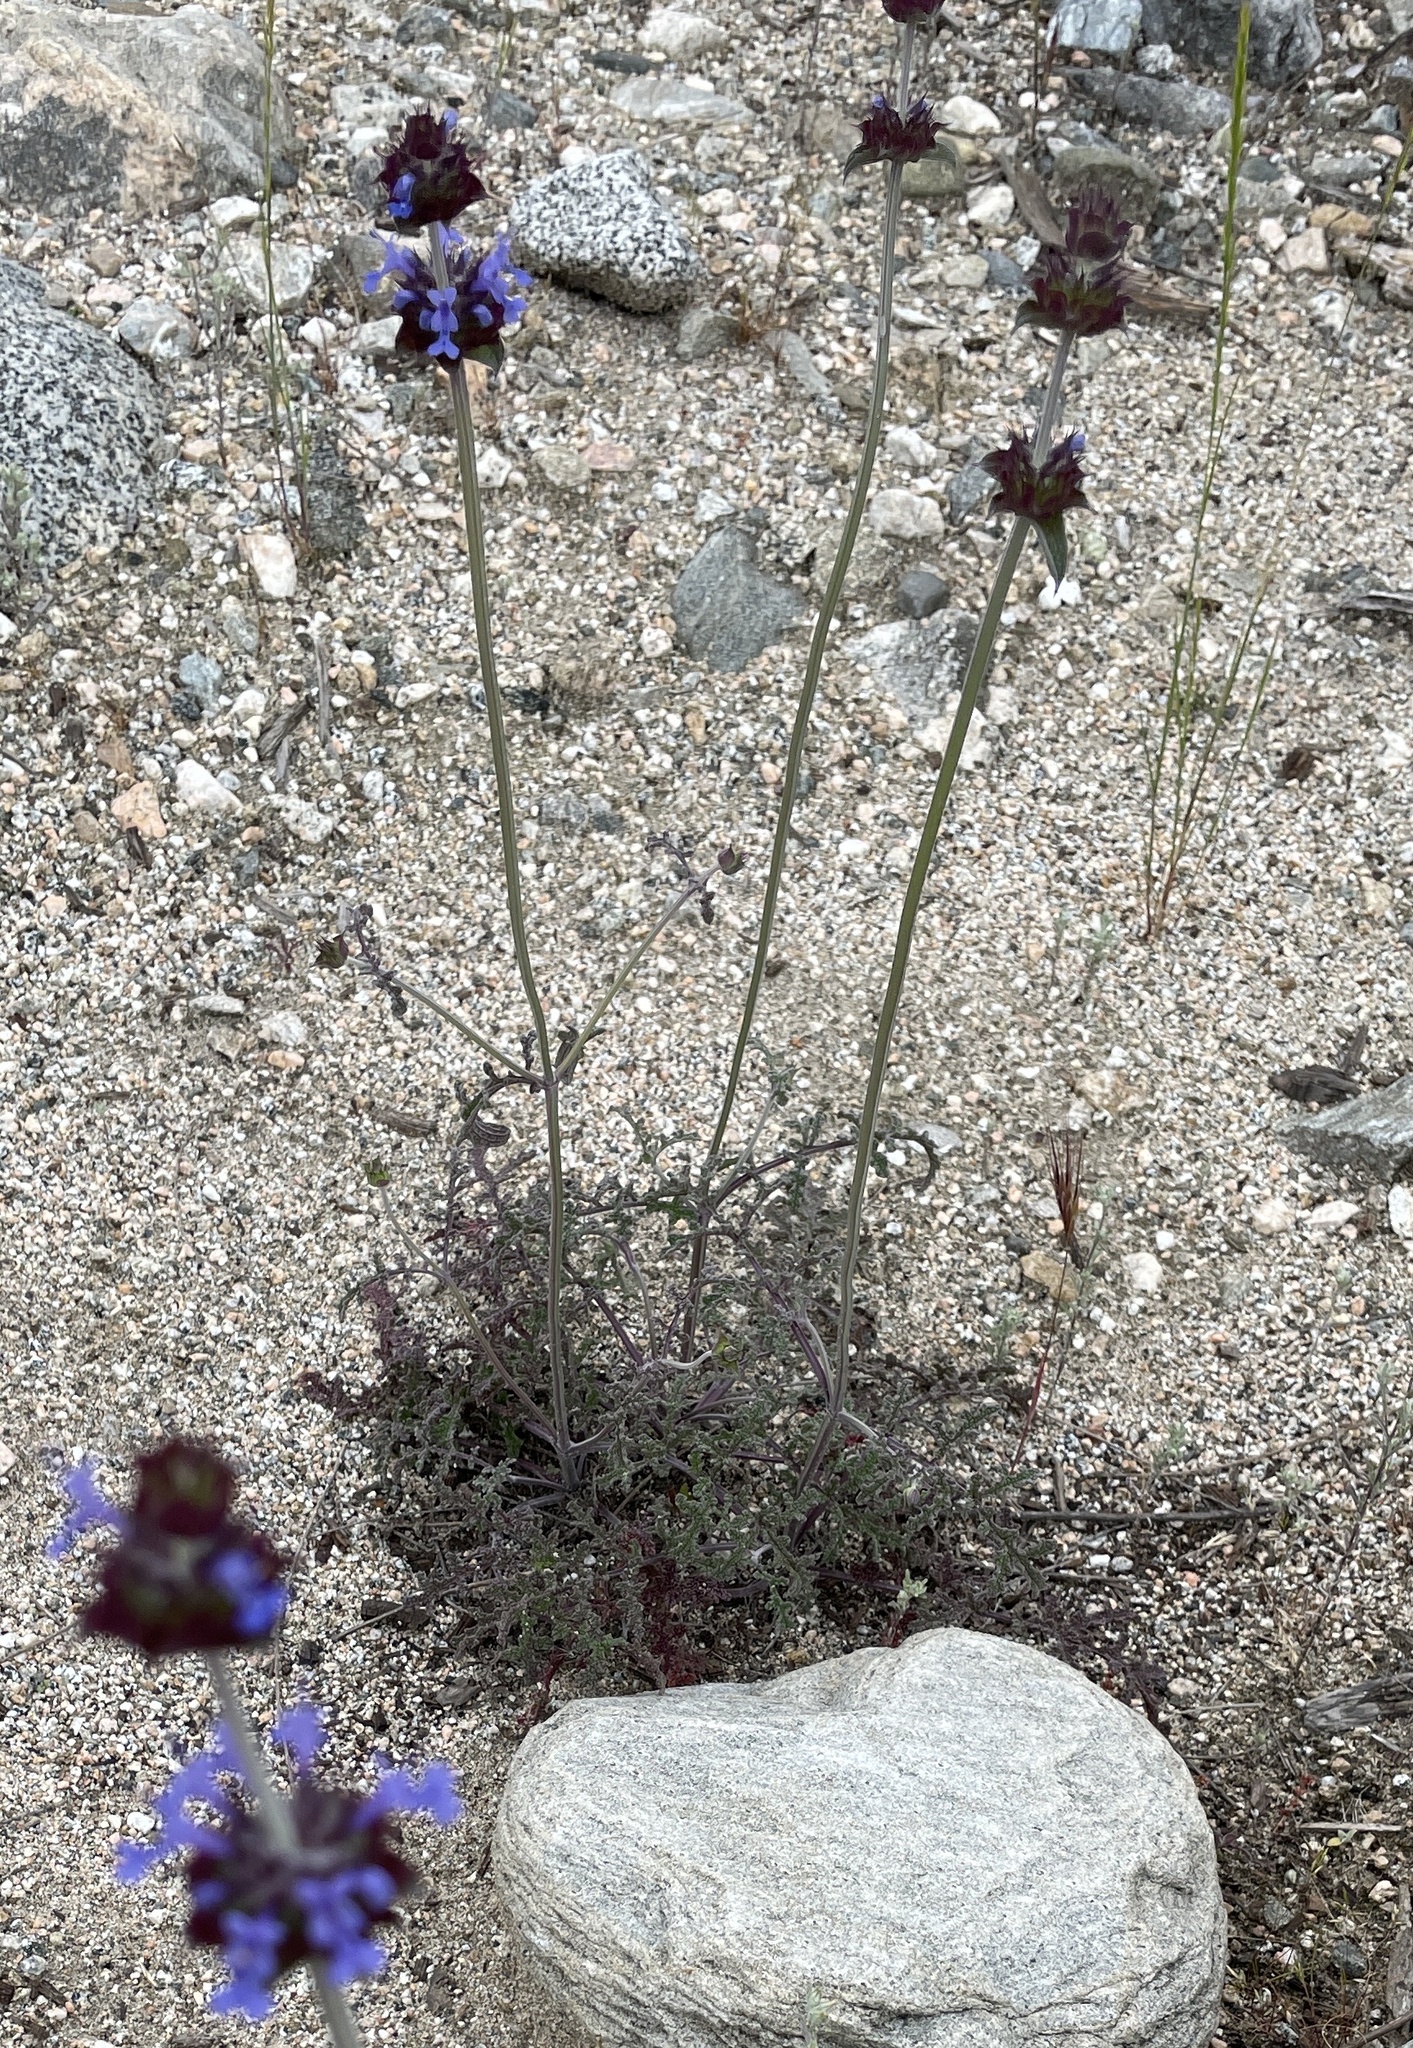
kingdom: Plantae
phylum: Tracheophyta
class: Magnoliopsida
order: Lamiales
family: Lamiaceae
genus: Salvia
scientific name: Salvia columbariae
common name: Chia
